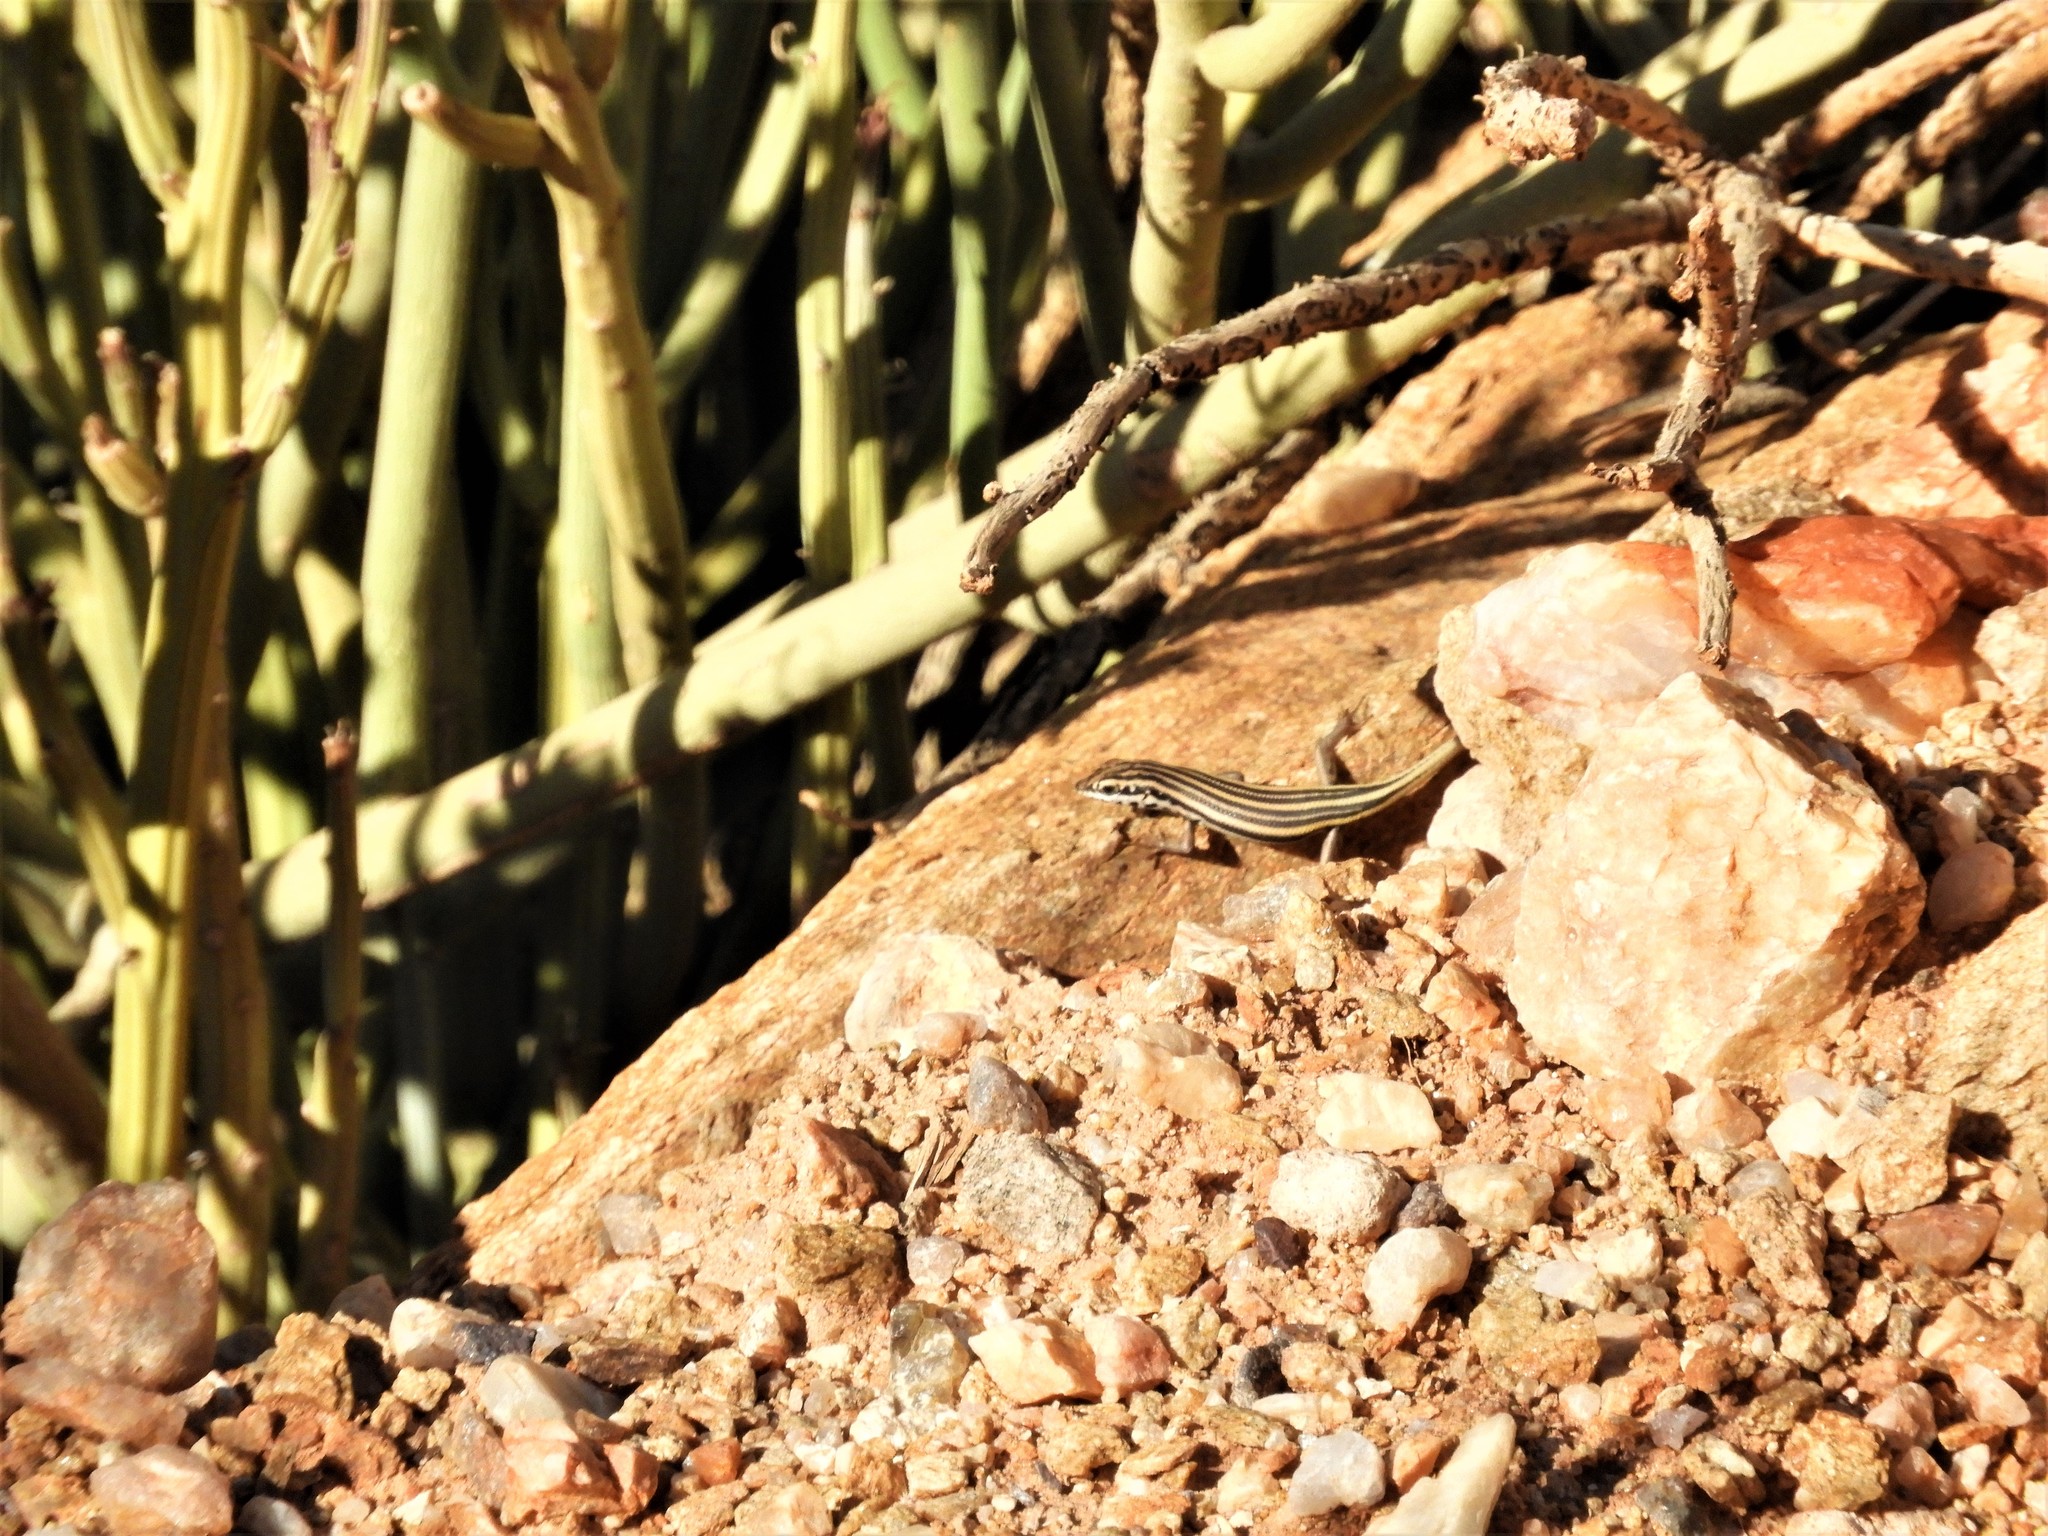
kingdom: Animalia
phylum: Chordata
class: Squamata
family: Scincidae
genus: Trachylepis
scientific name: Trachylepis sulcata
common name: Western rock skink
